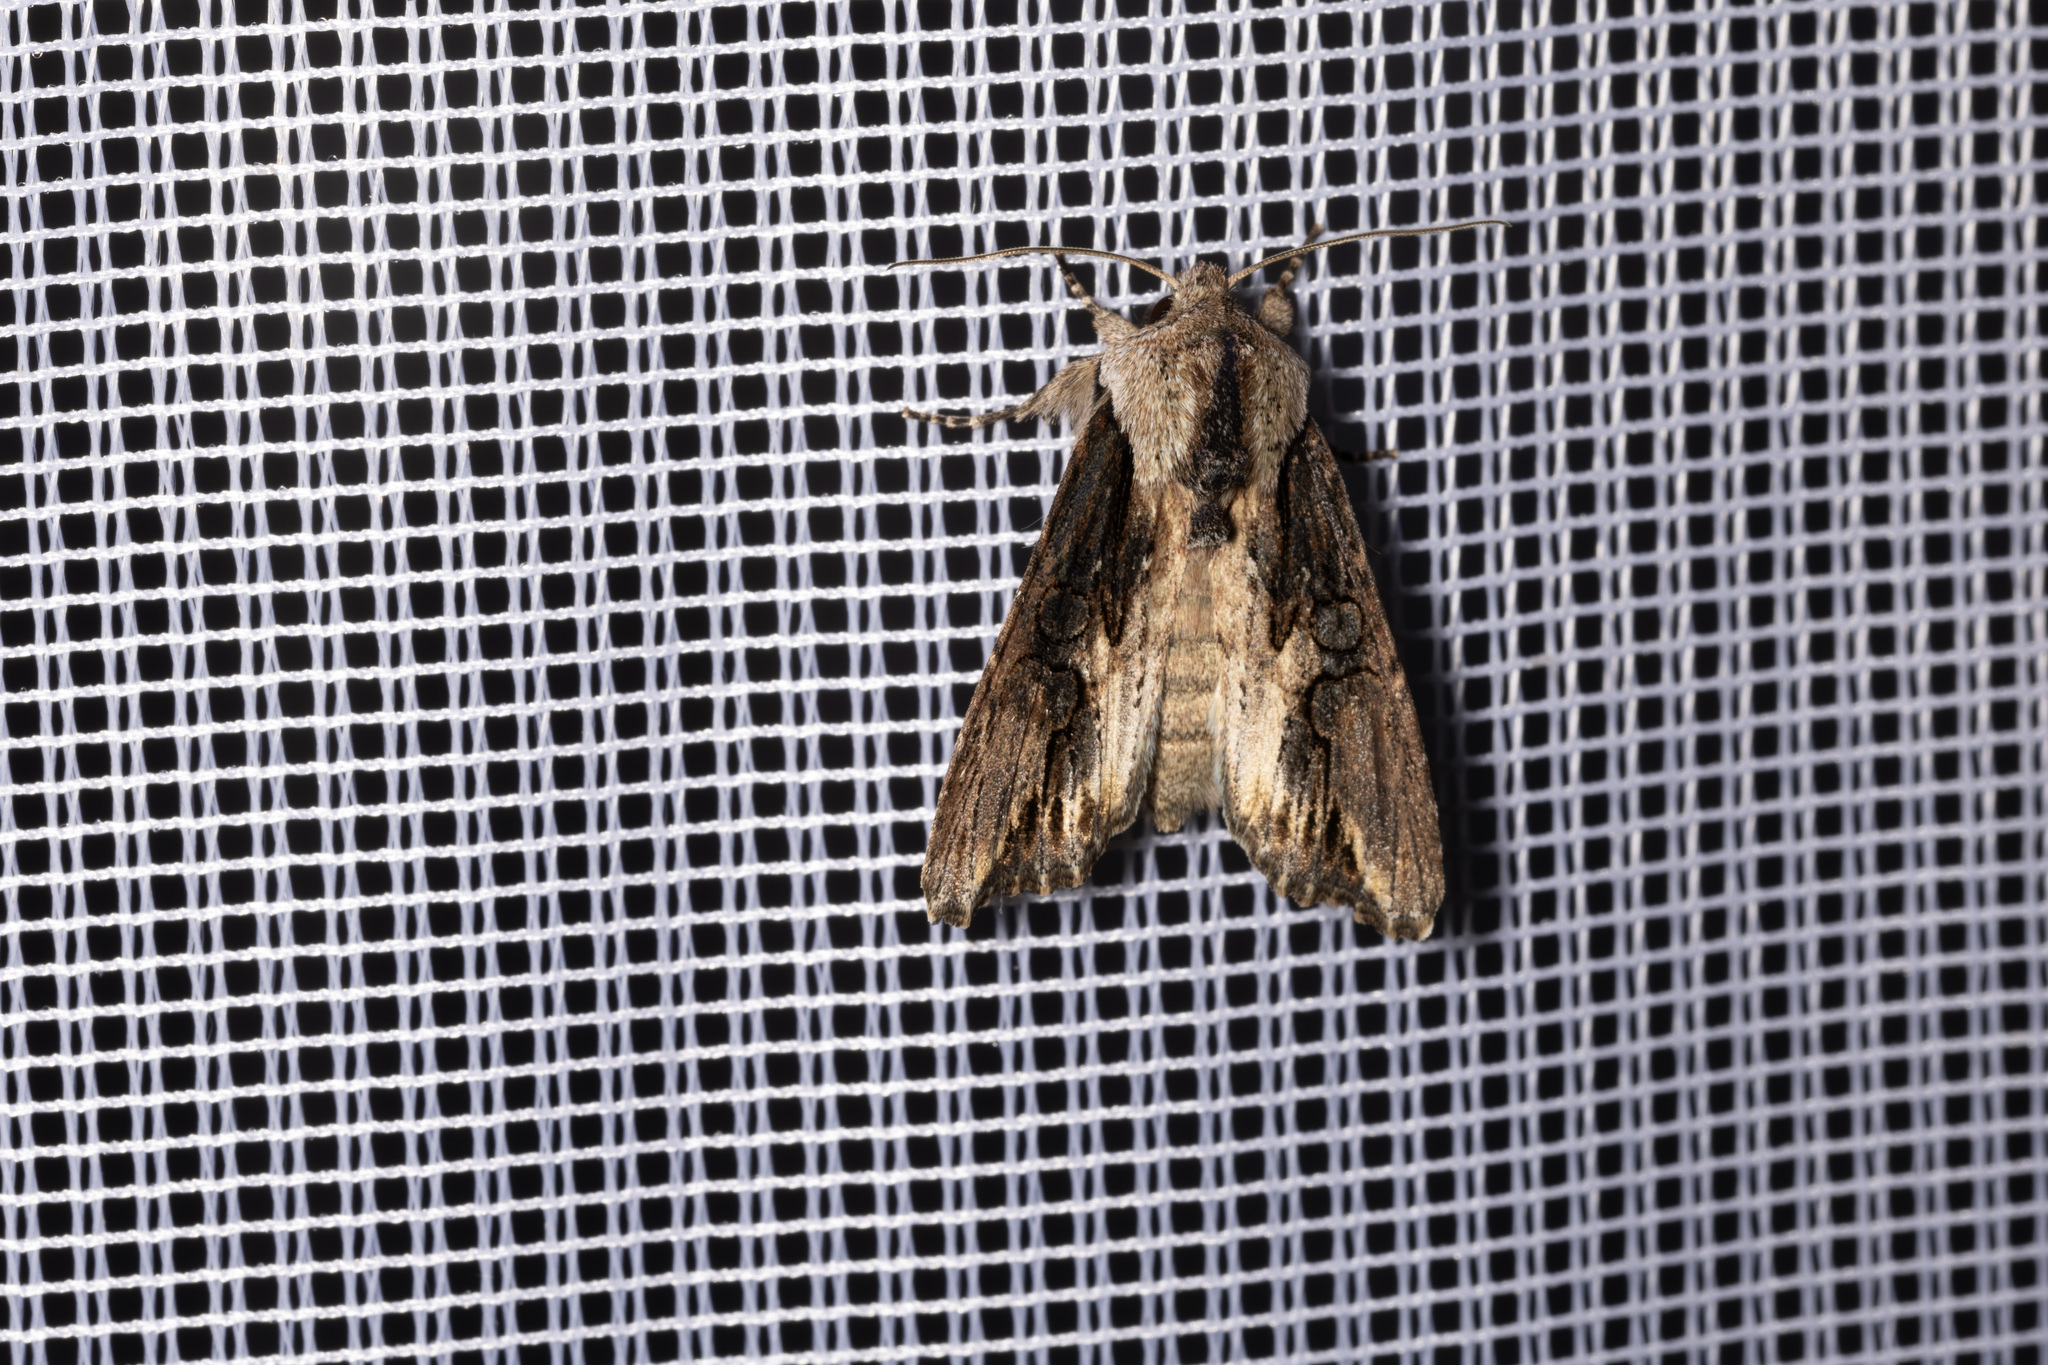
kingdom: Animalia
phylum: Arthropoda
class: Insecta
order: Lepidoptera
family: Noctuidae
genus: Egira
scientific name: Egira conspicillaris
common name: Silver cloud
